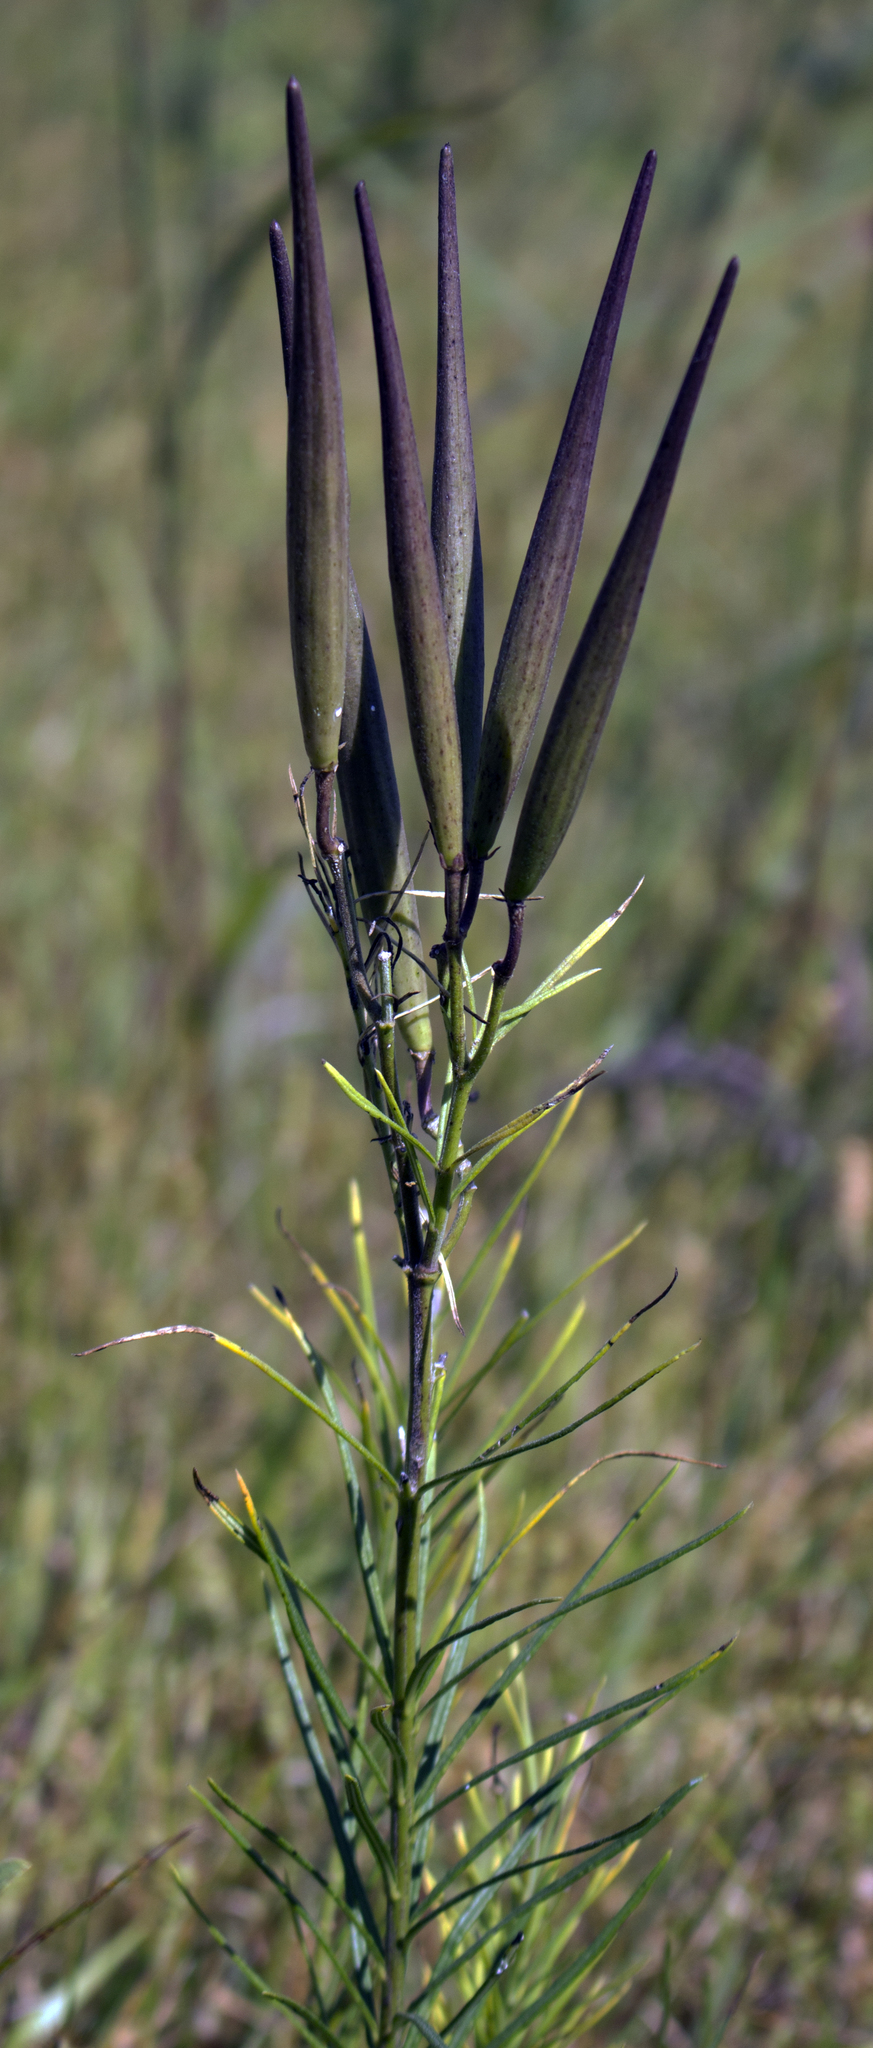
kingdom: Plantae
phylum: Tracheophyta
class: Magnoliopsida
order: Gentianales
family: Apocynaceae
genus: Asclepias
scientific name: Asclepias verticillata
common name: Eastern whorled milkweed
